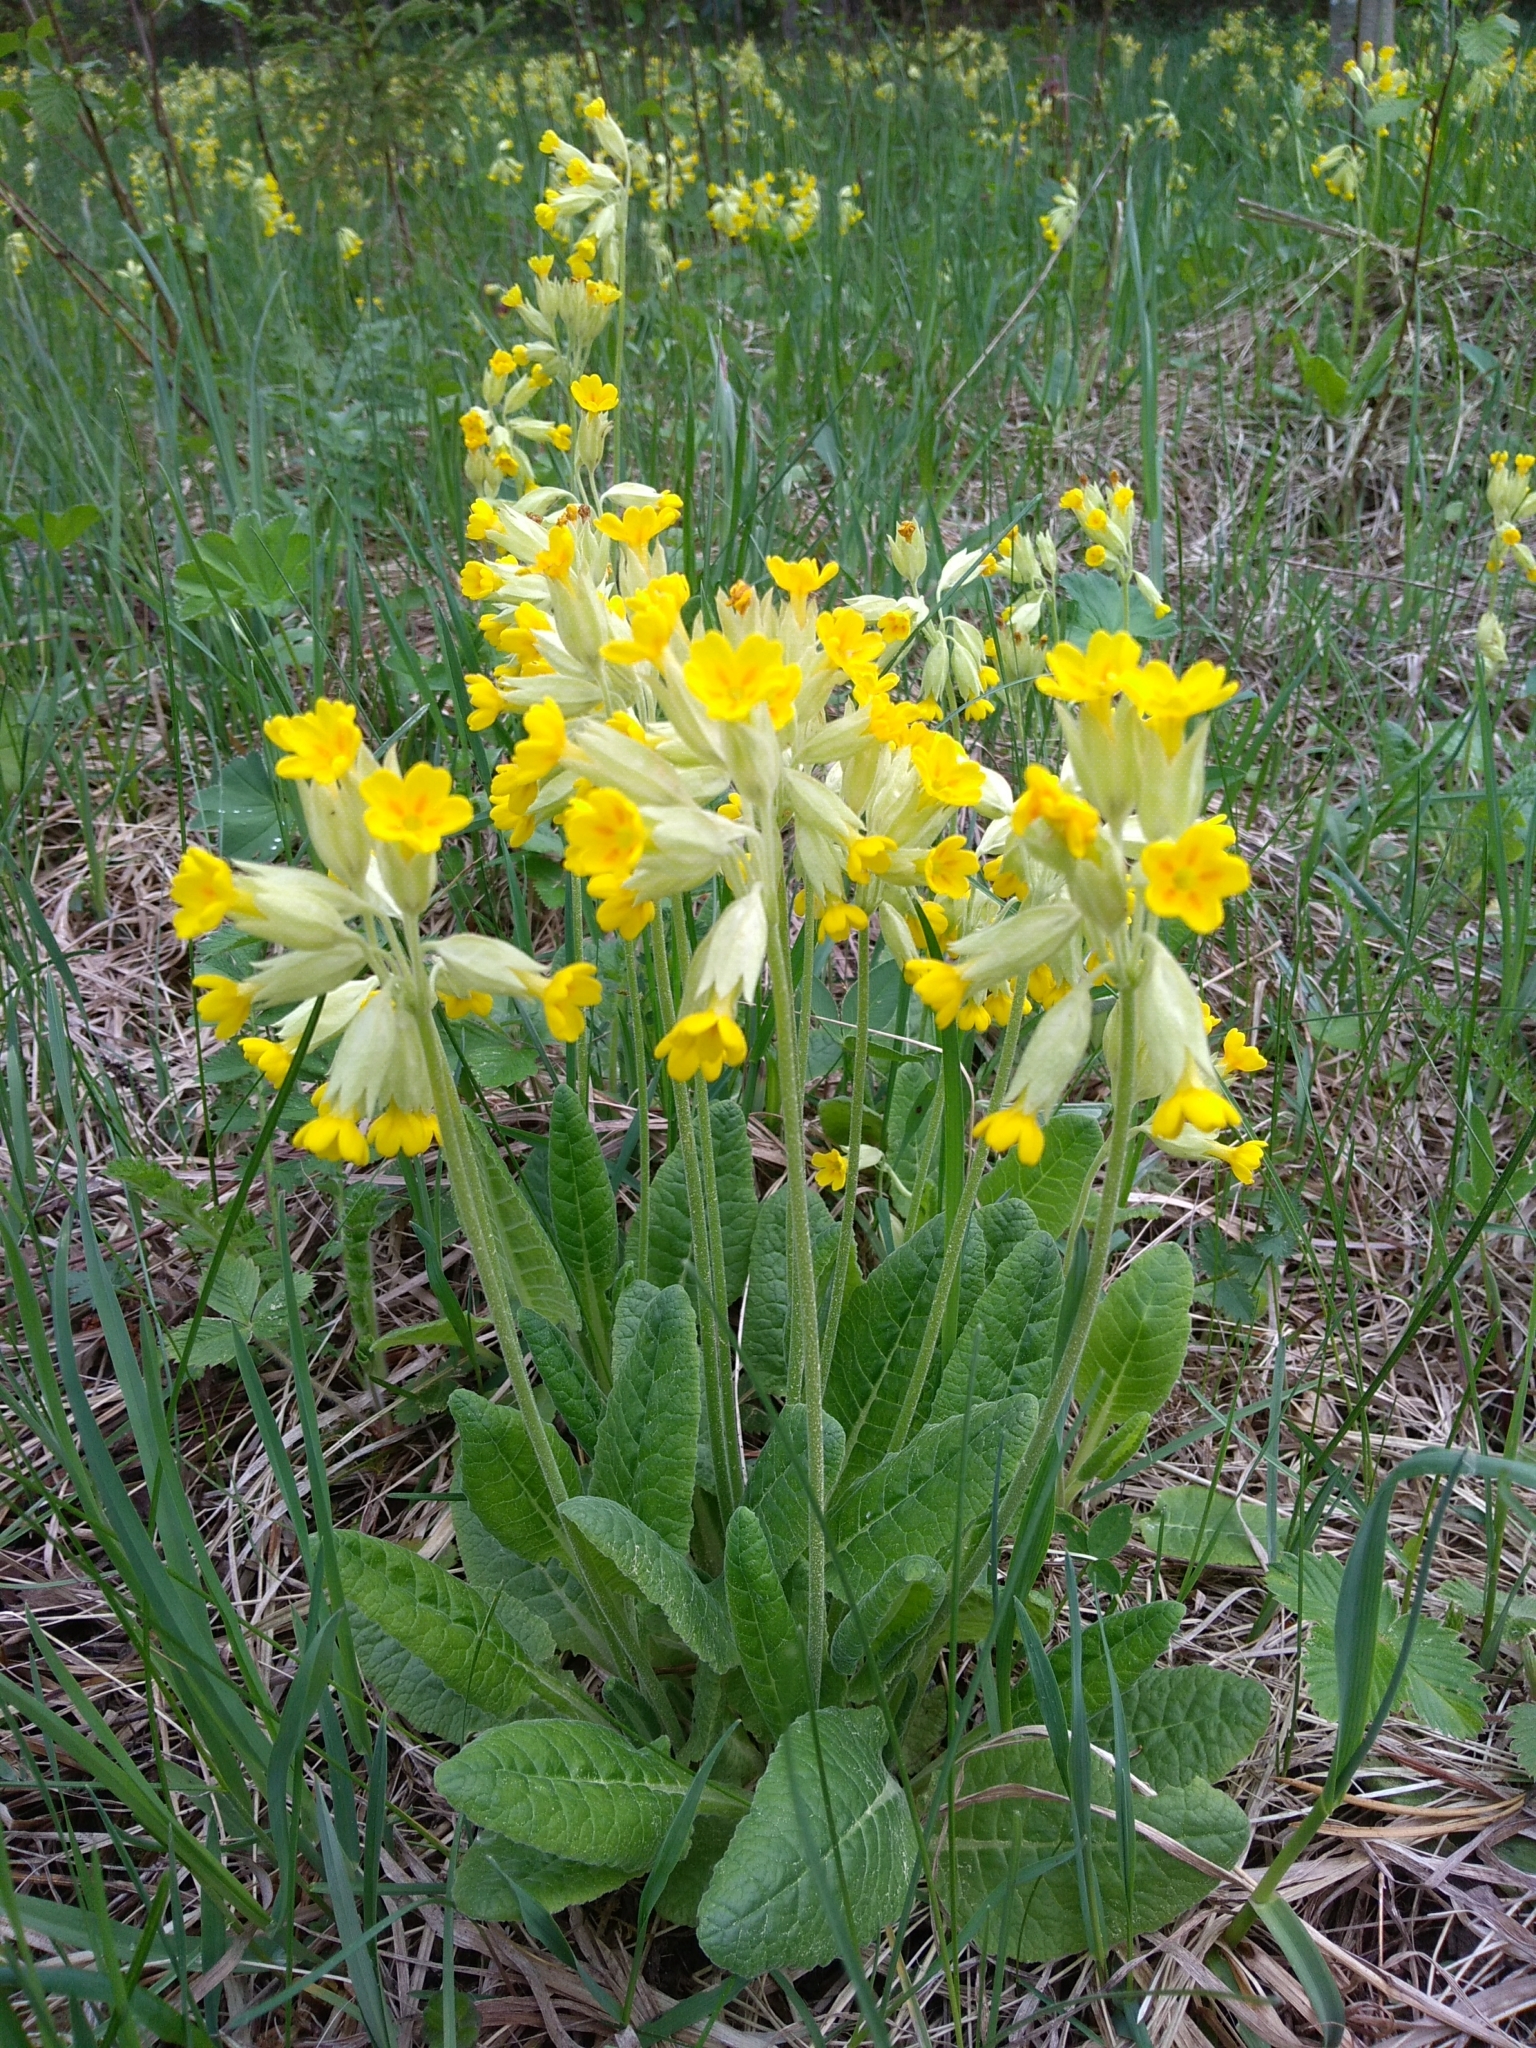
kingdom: Plantae
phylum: Tracheophyta
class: Magnoliopsida
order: Ericales
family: Primulaceae
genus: Primula
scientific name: Primula veris
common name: Cowslip
